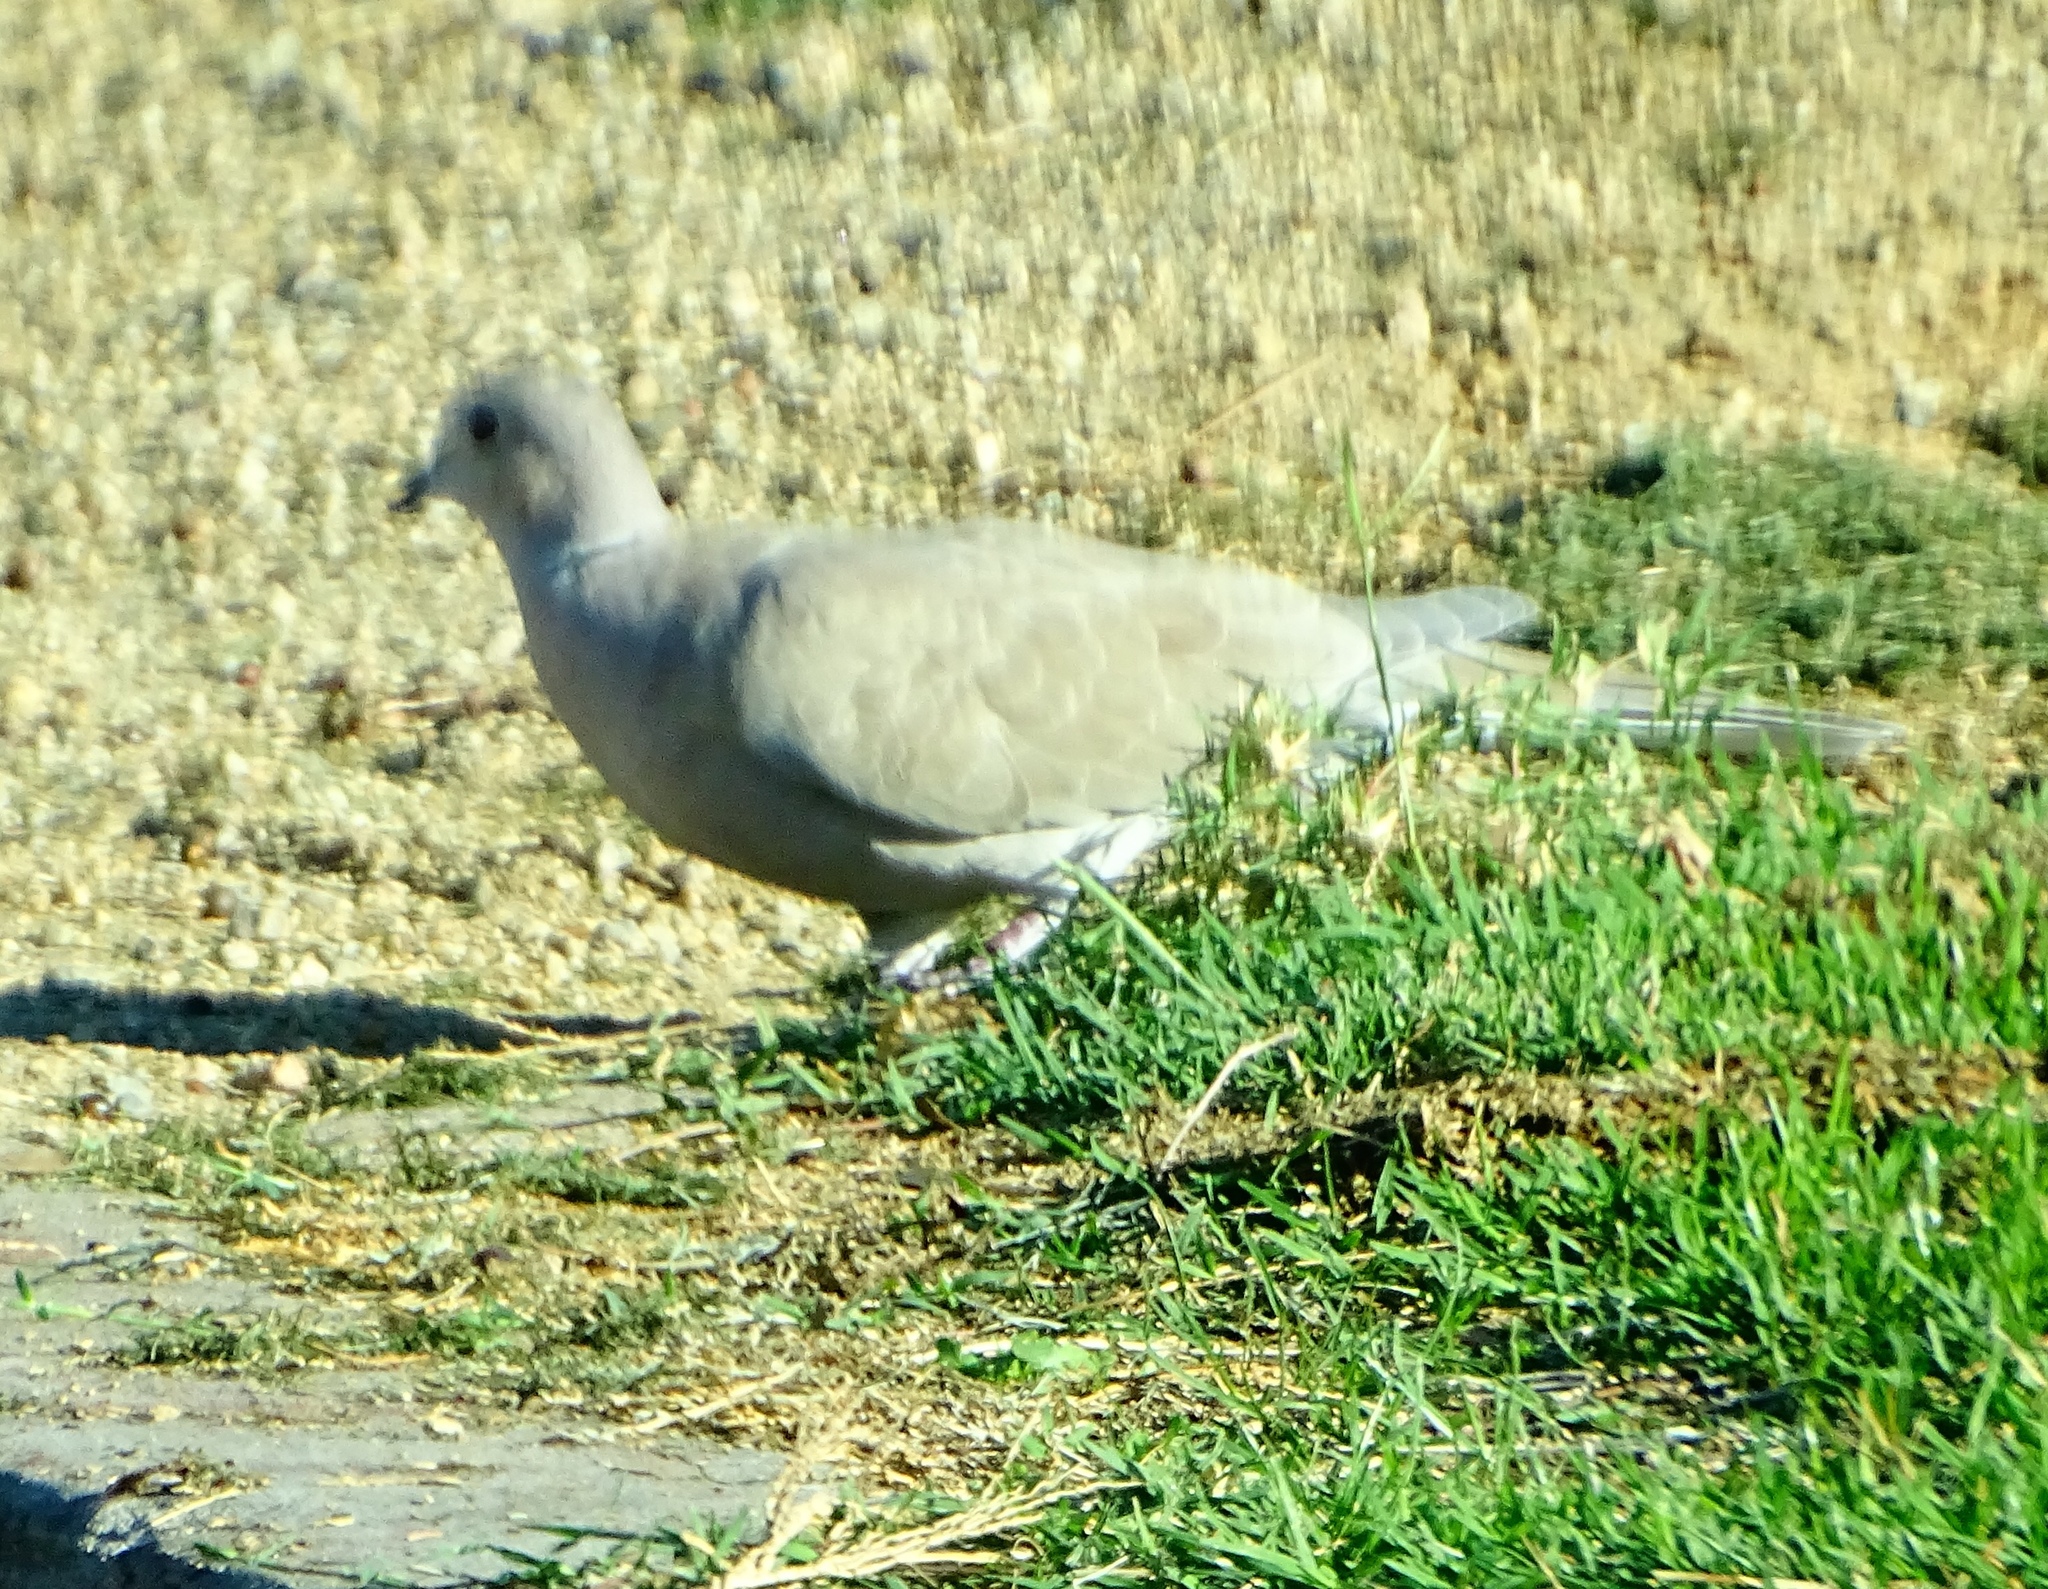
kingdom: Animalia
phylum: Chordata
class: Aves
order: Columbiformes
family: Columbidae
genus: Streptopelia
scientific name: Streptopelia decaocto
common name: Eurasian collared dove
